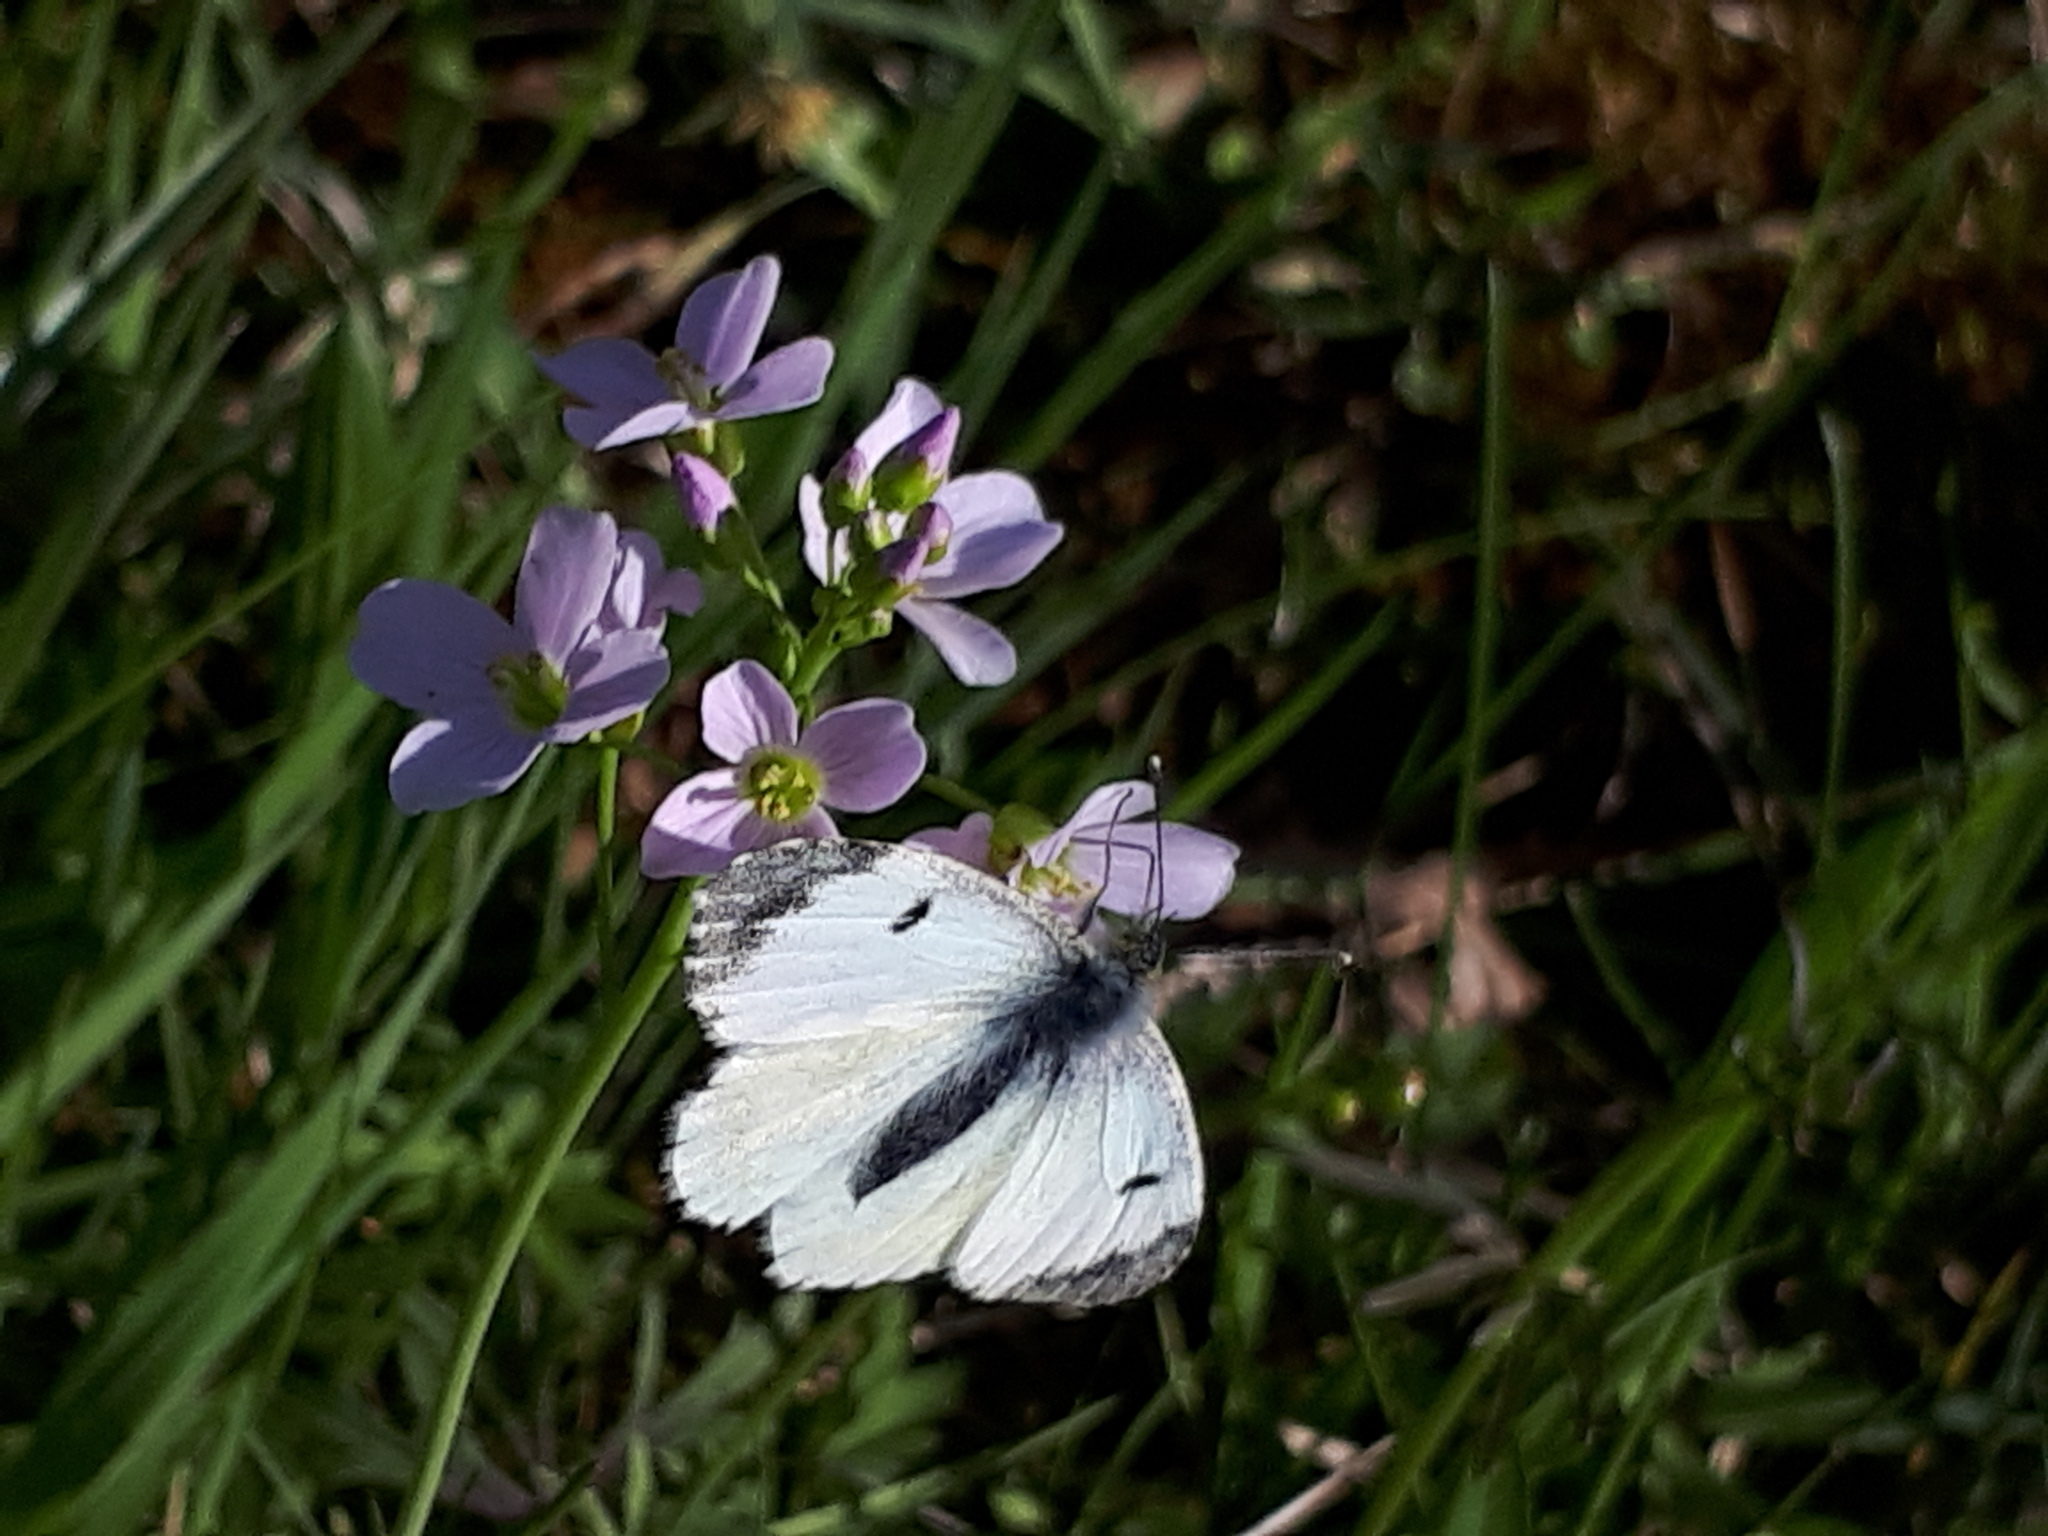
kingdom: Animalia
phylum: Arthropoda
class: Insecta
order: Lepidoptera
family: Pieridae
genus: Anthocharis
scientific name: Anthocharis cardamines
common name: Orange-tip
